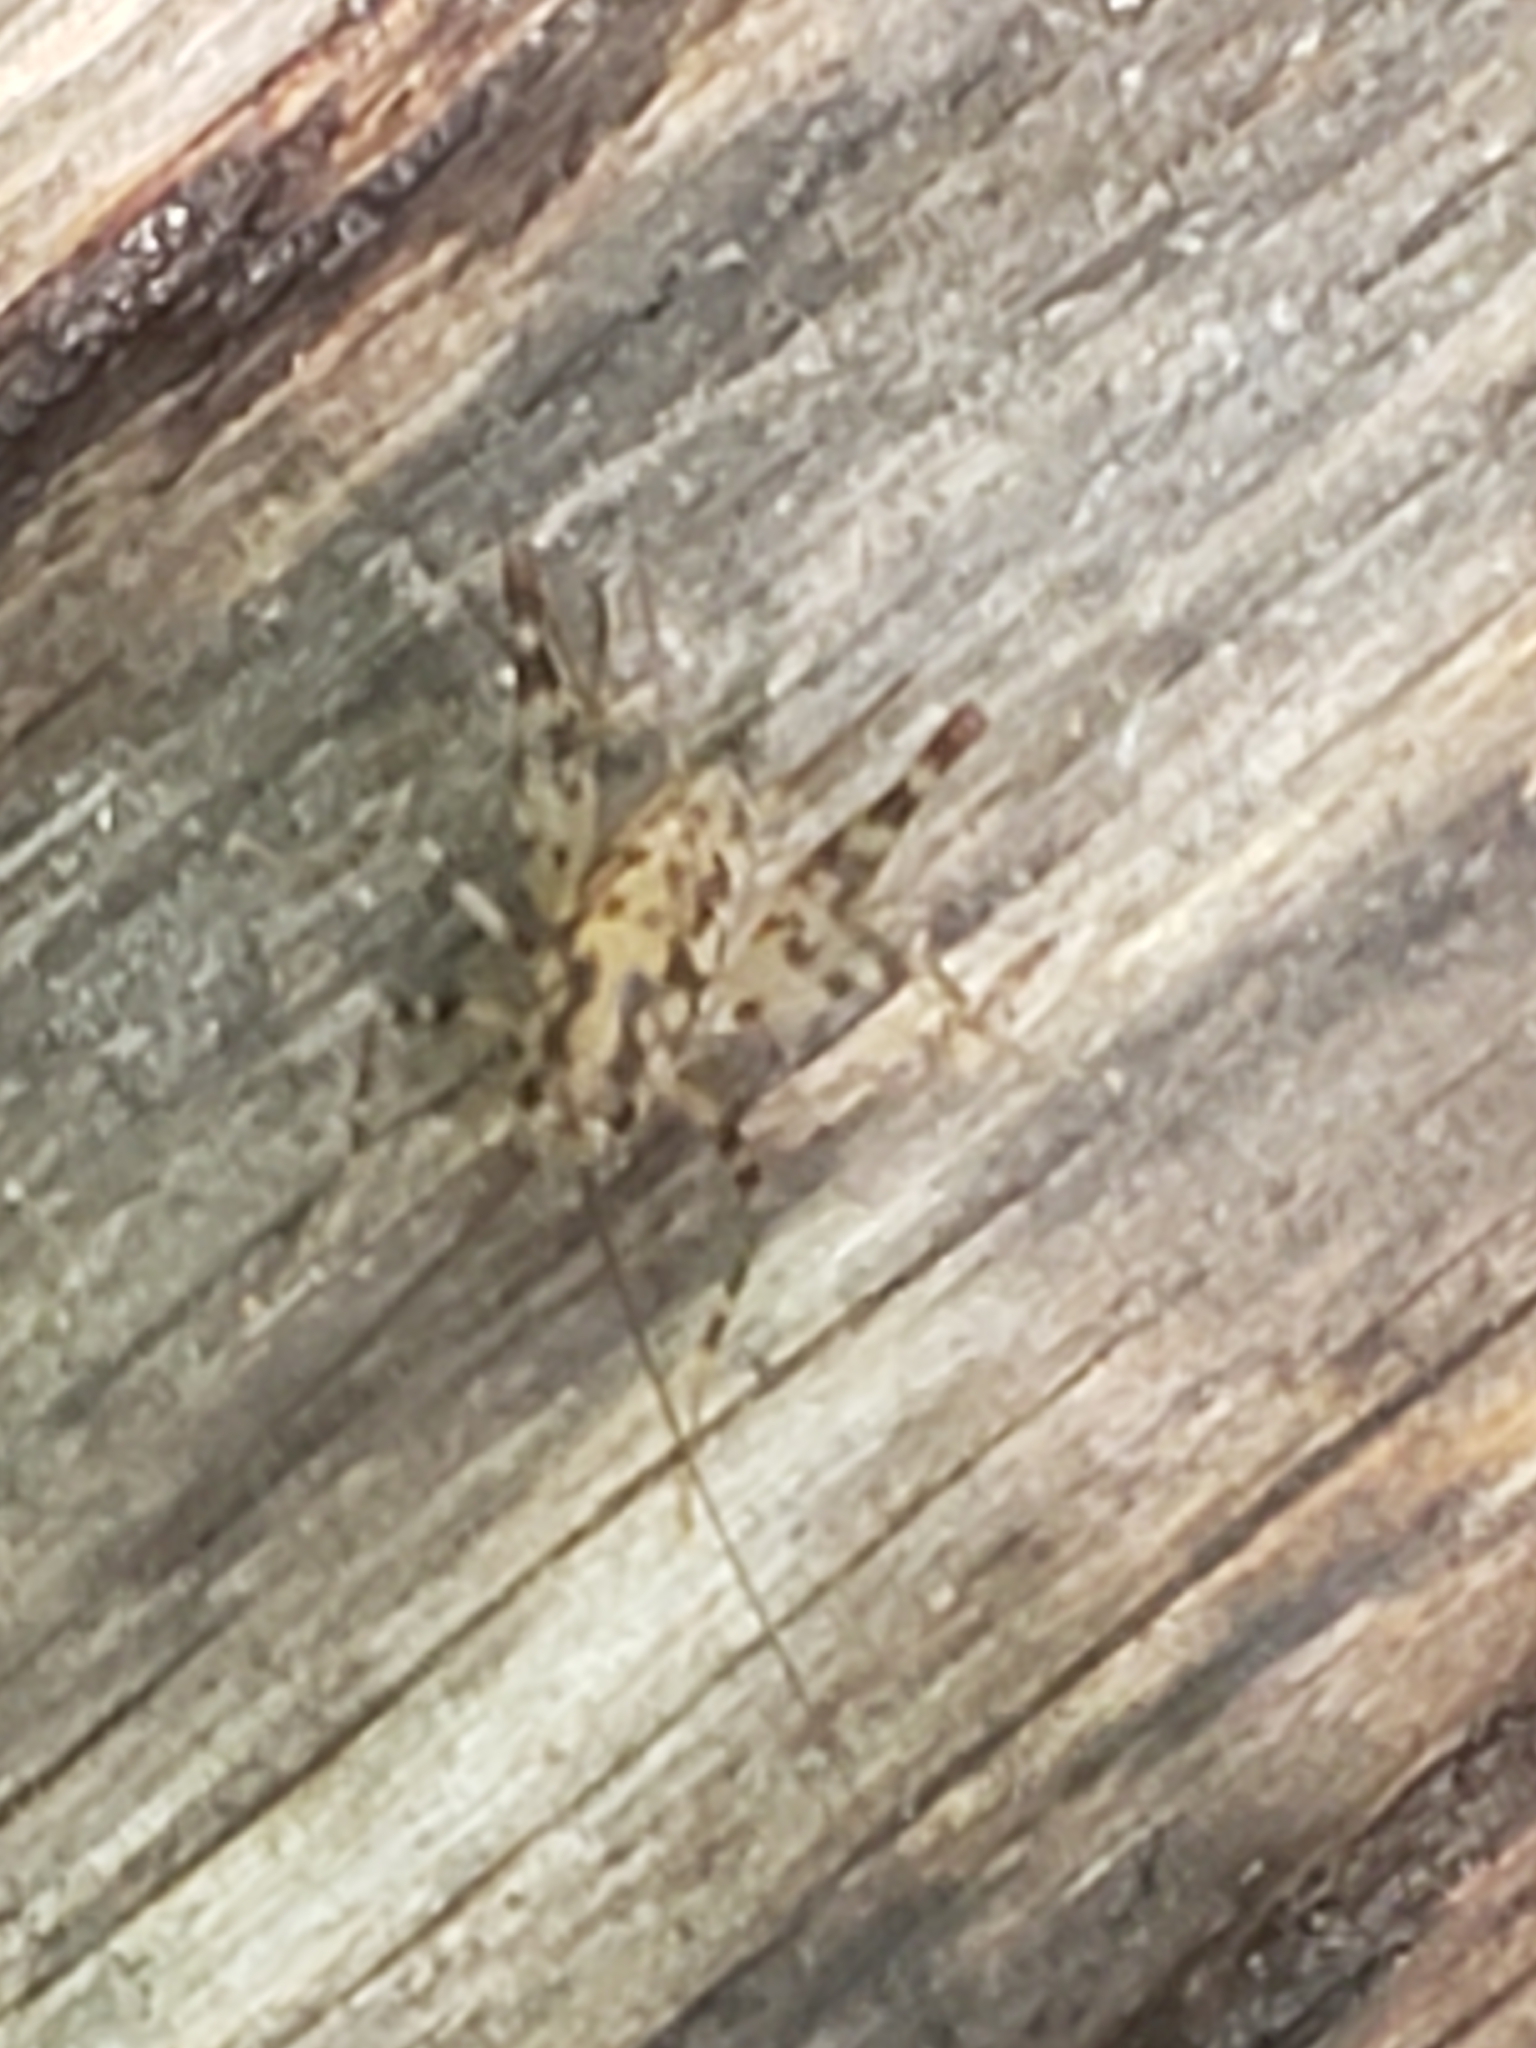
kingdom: Animalia
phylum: Arthropoda
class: Insecta
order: Orthoptera
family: Rhaphidophoridae
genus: Tachycines
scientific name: Tachycines asynamorus
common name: Greenhouse camel cricket
